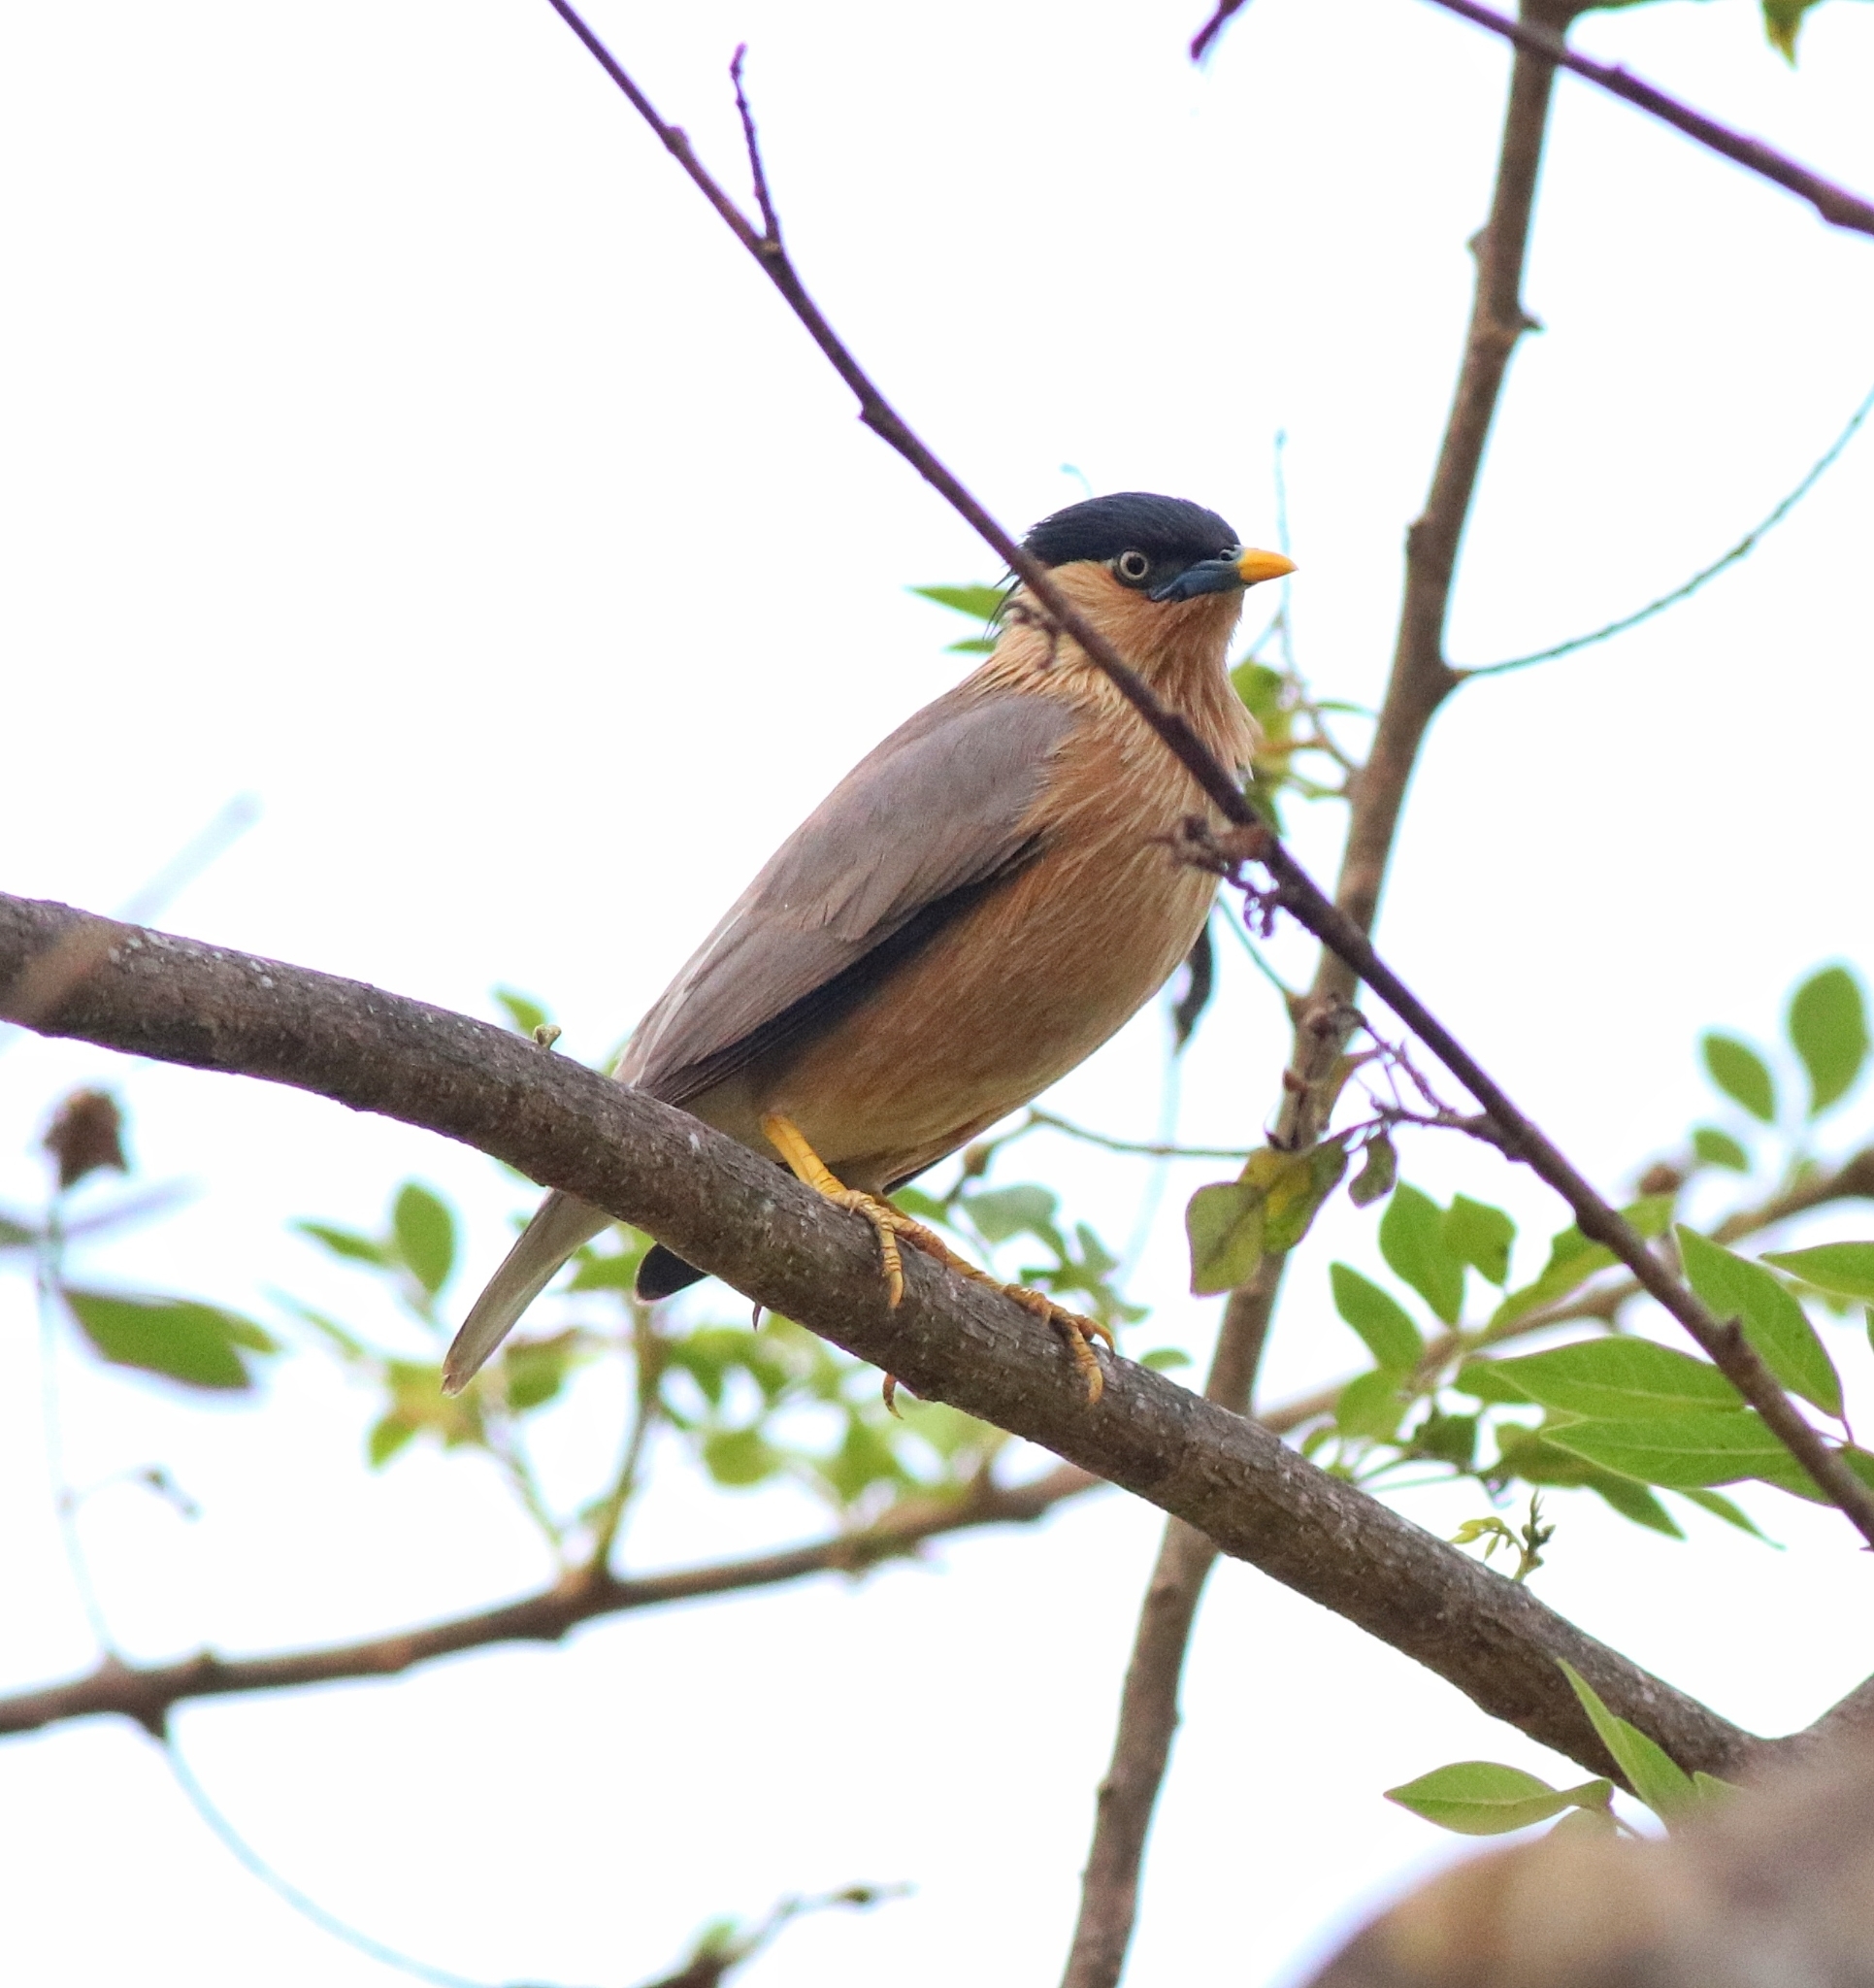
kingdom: Animalia
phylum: Chordata
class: Aves
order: Passeriformes
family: Sturnidae
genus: Sturnia
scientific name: Sturnia pagodarum
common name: Brahminy starling
